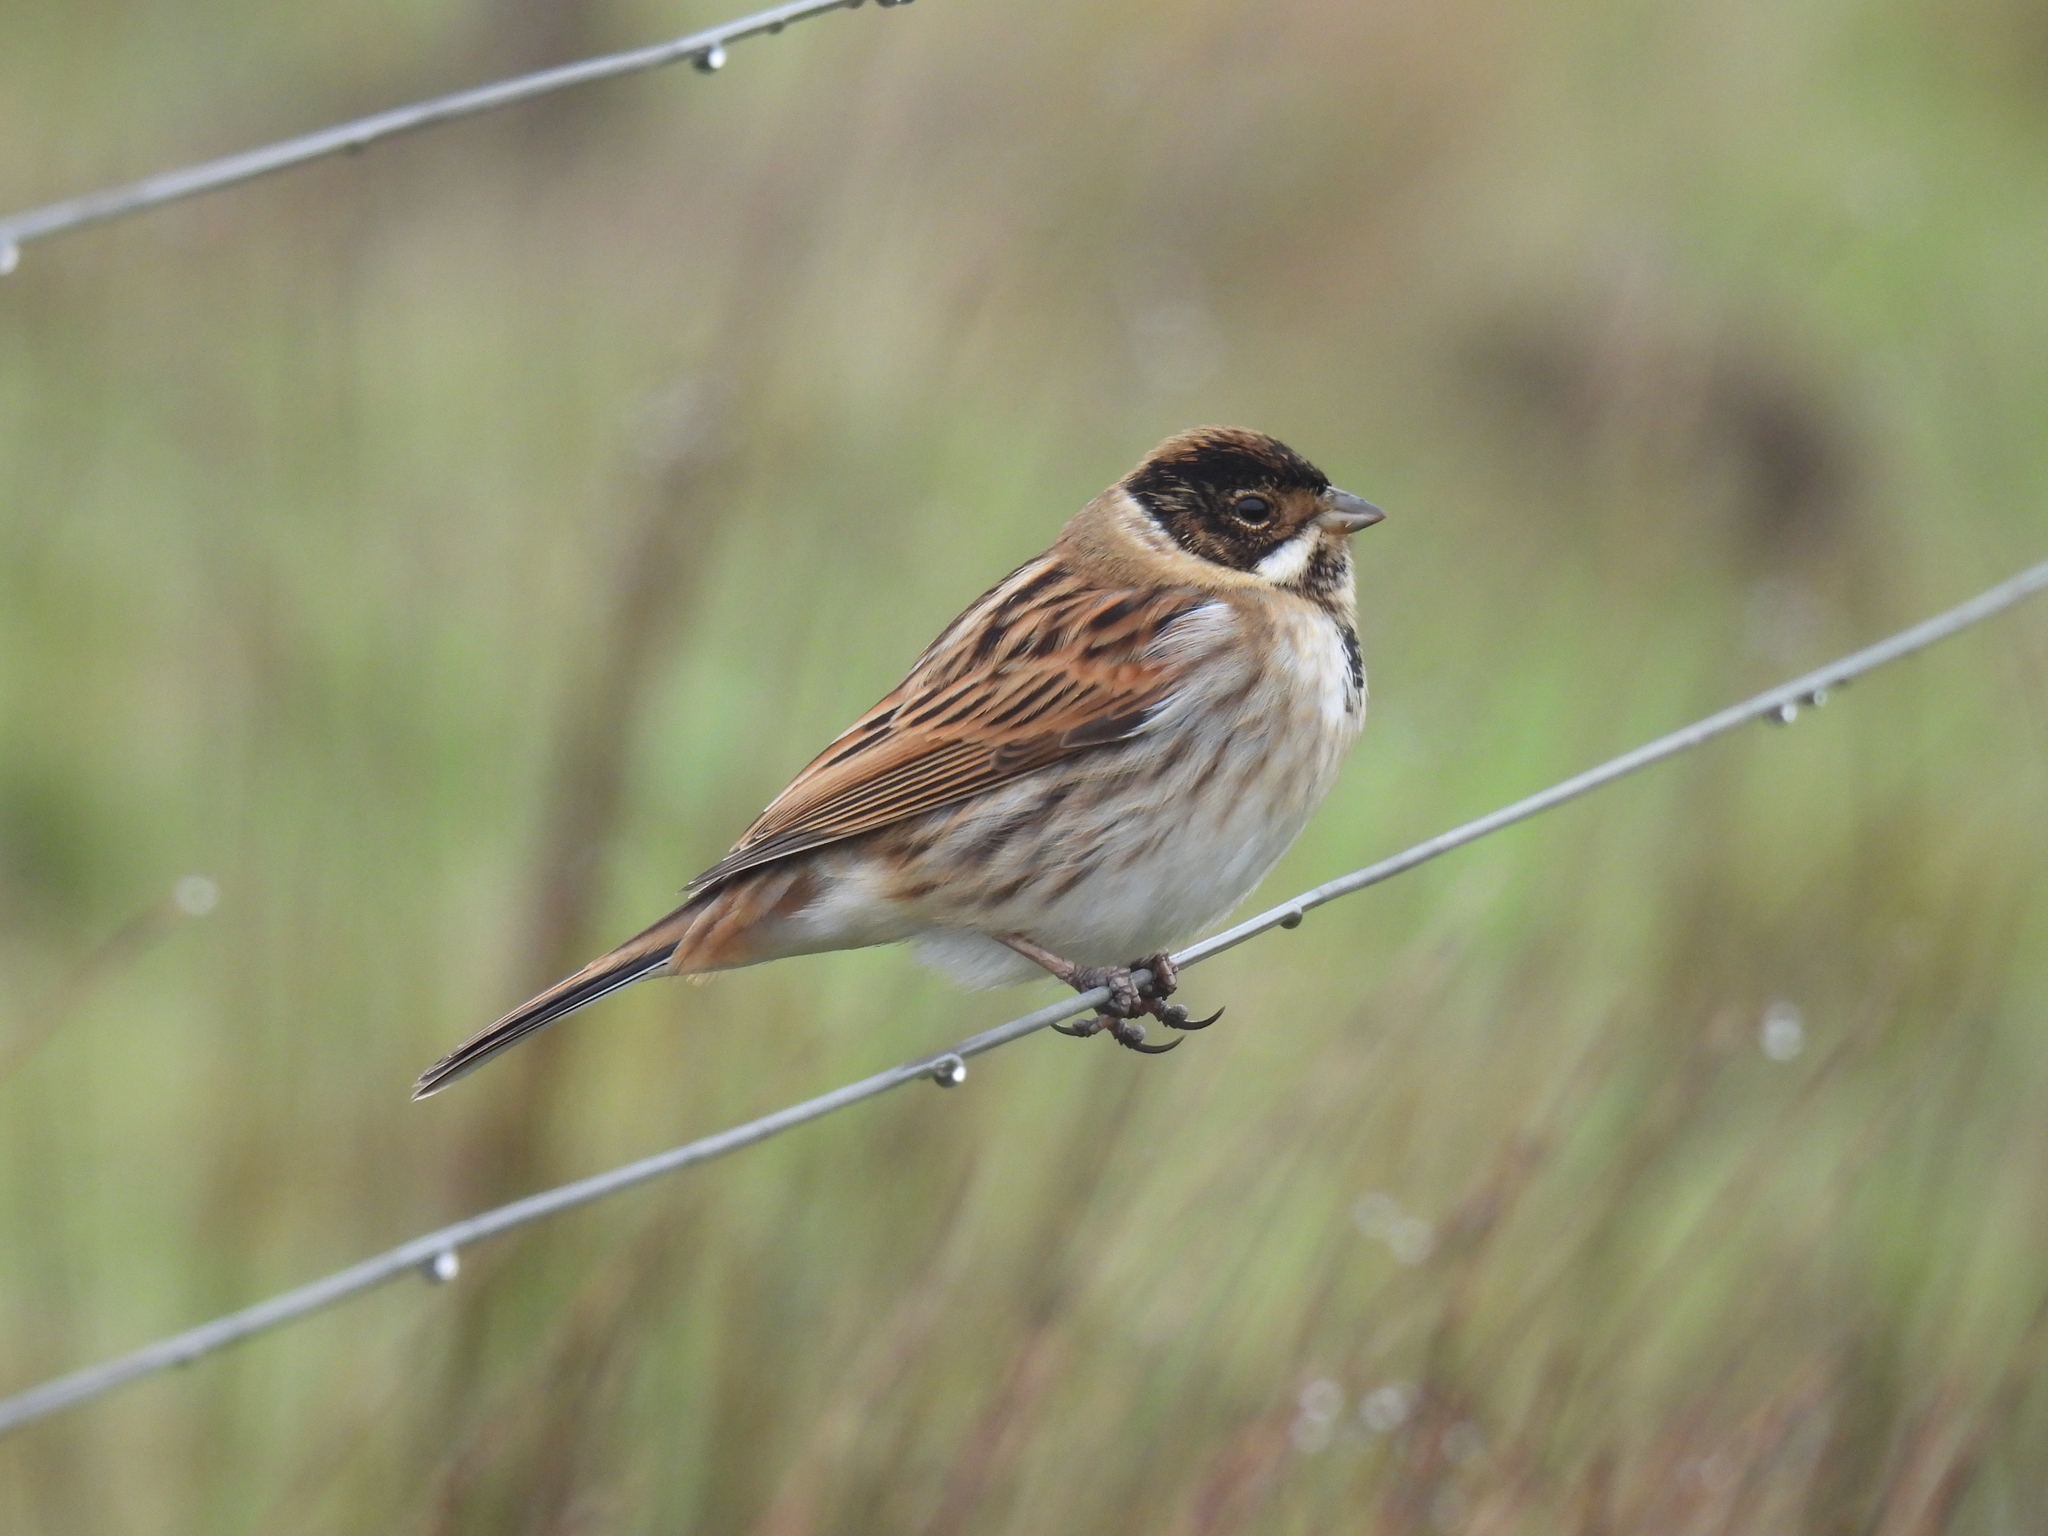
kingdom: Animalia
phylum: Chordata
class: Aves
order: Passeriformes
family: Emberizidae
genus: Emberiza
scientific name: Emberiza schoeniclus
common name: Reed bunting
